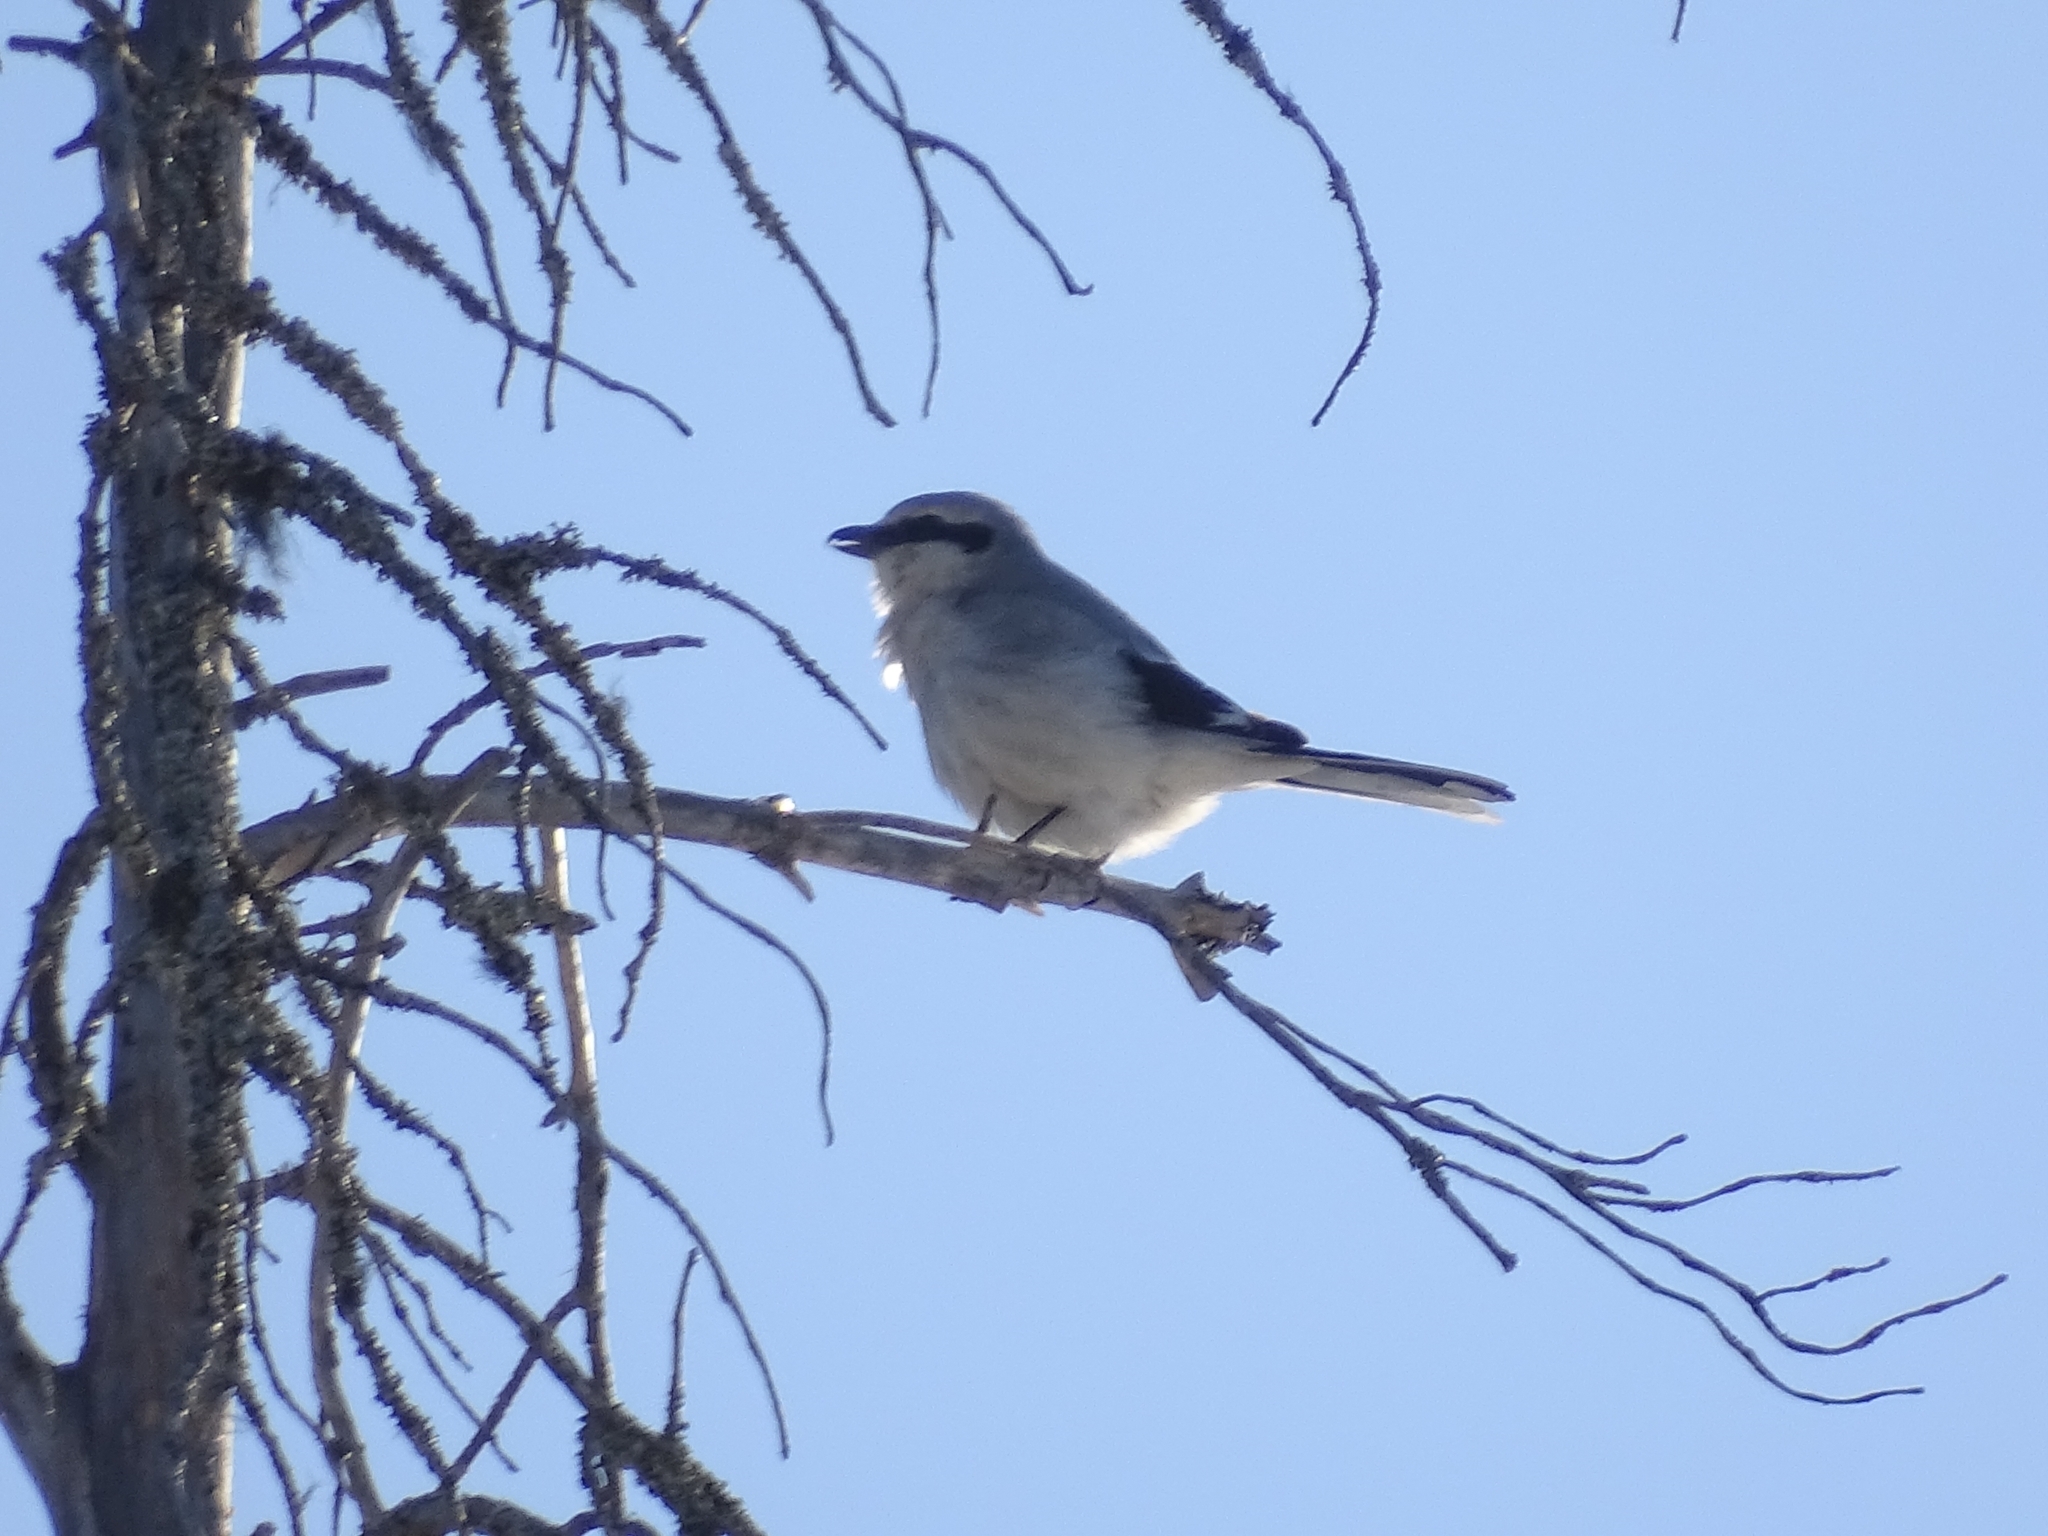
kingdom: Animalia
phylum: Chordata
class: Aves
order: Passeriformes
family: Laniidae
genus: Lanius
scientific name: Lanius excubitor
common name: Great grey shrike
